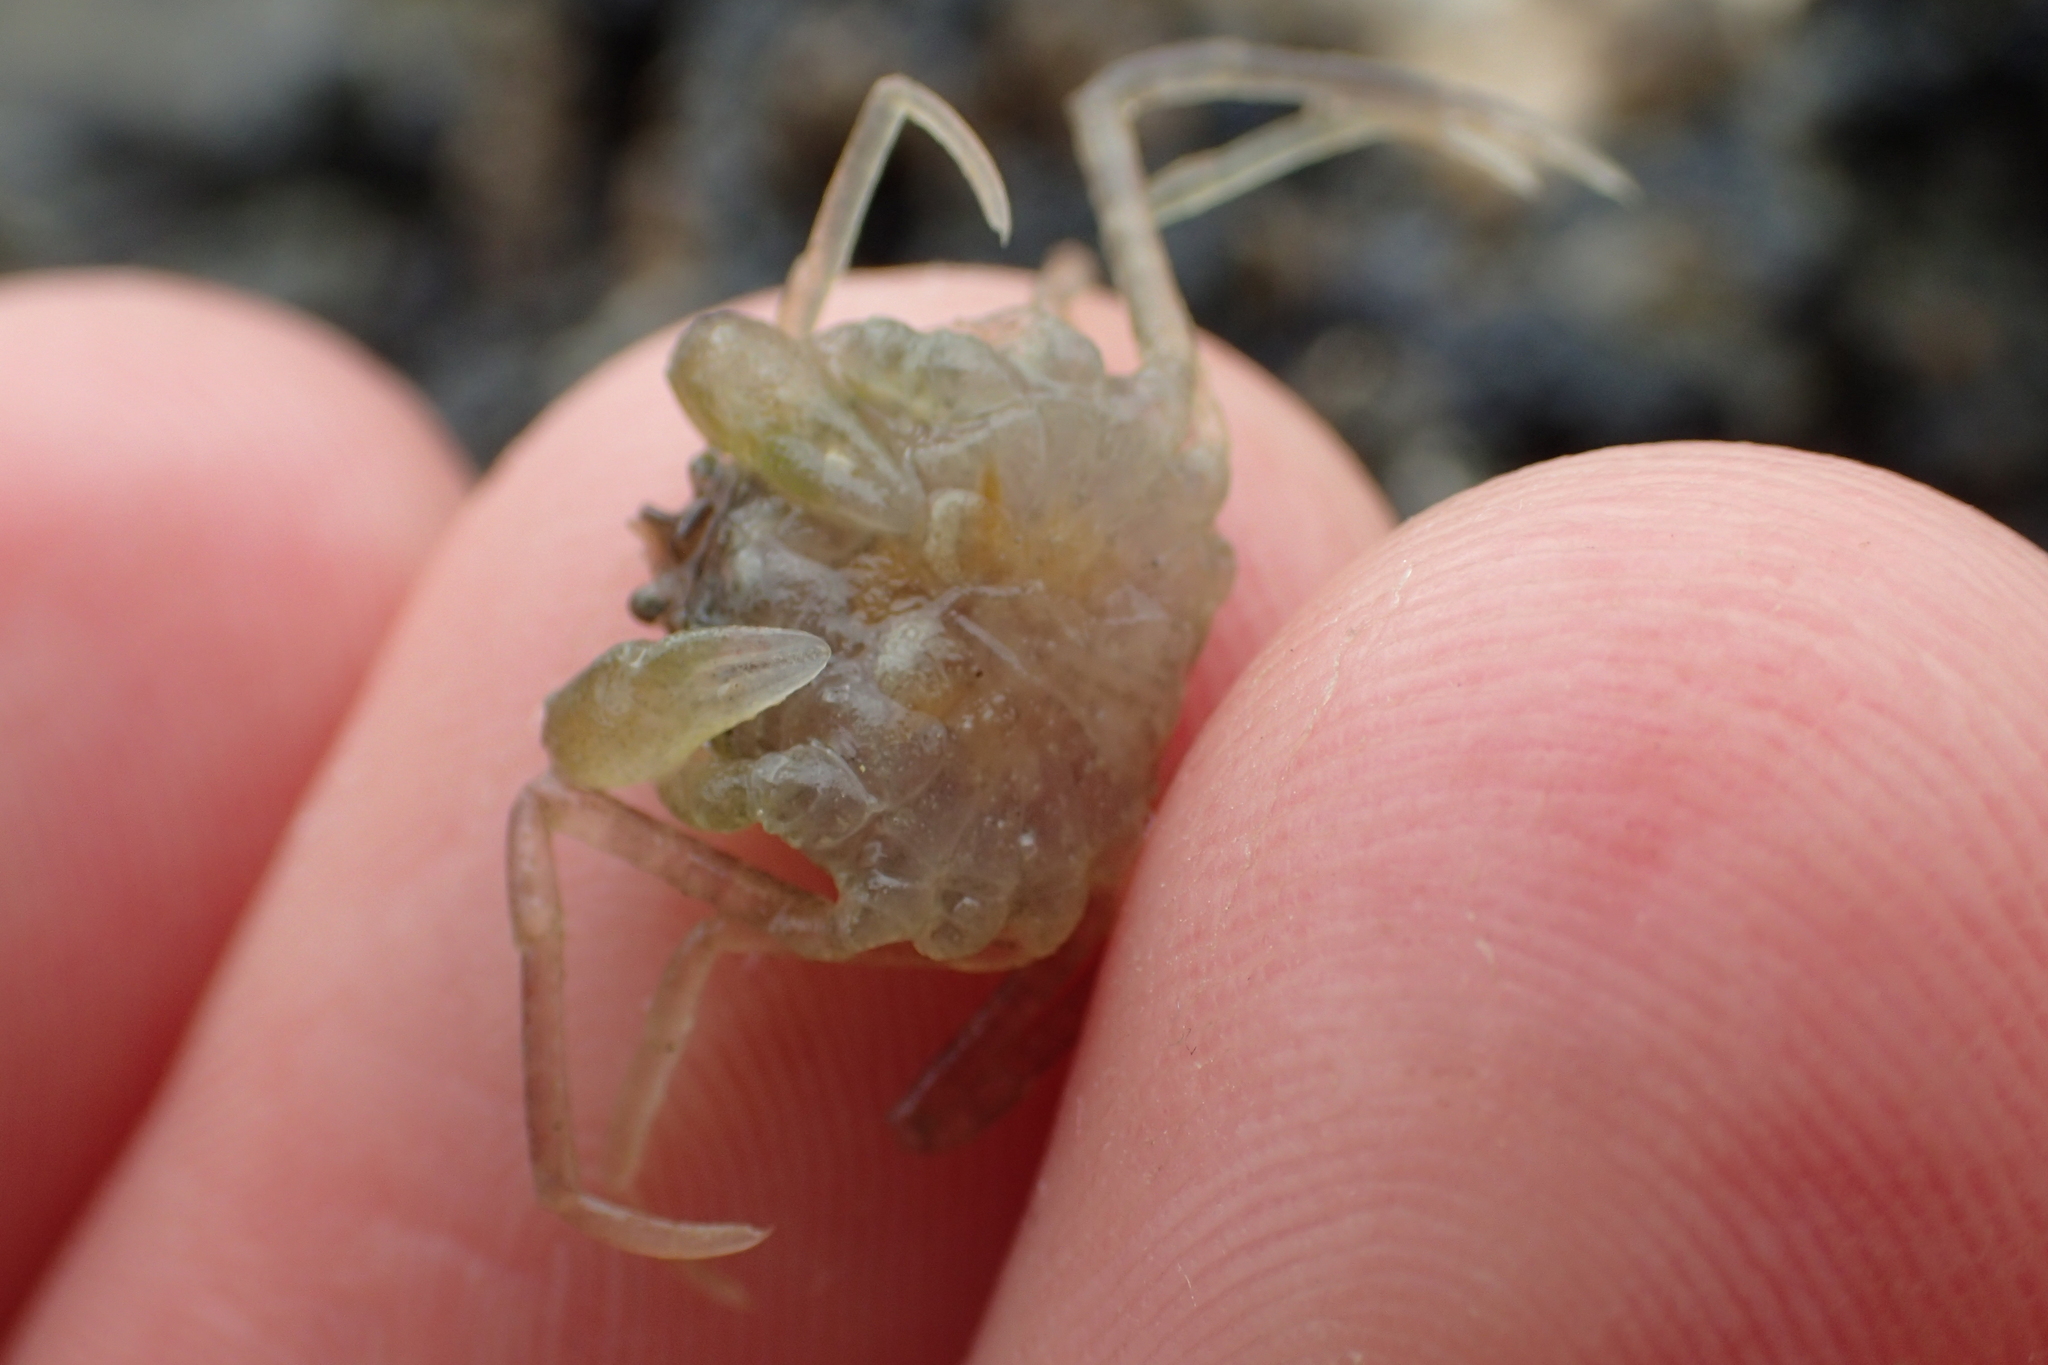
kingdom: Animalia
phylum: Arthropoda
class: Malacostraca
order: Decapoda
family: Hymenosomatidae
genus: Halicarcinus
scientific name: Halicarcinus whitei
